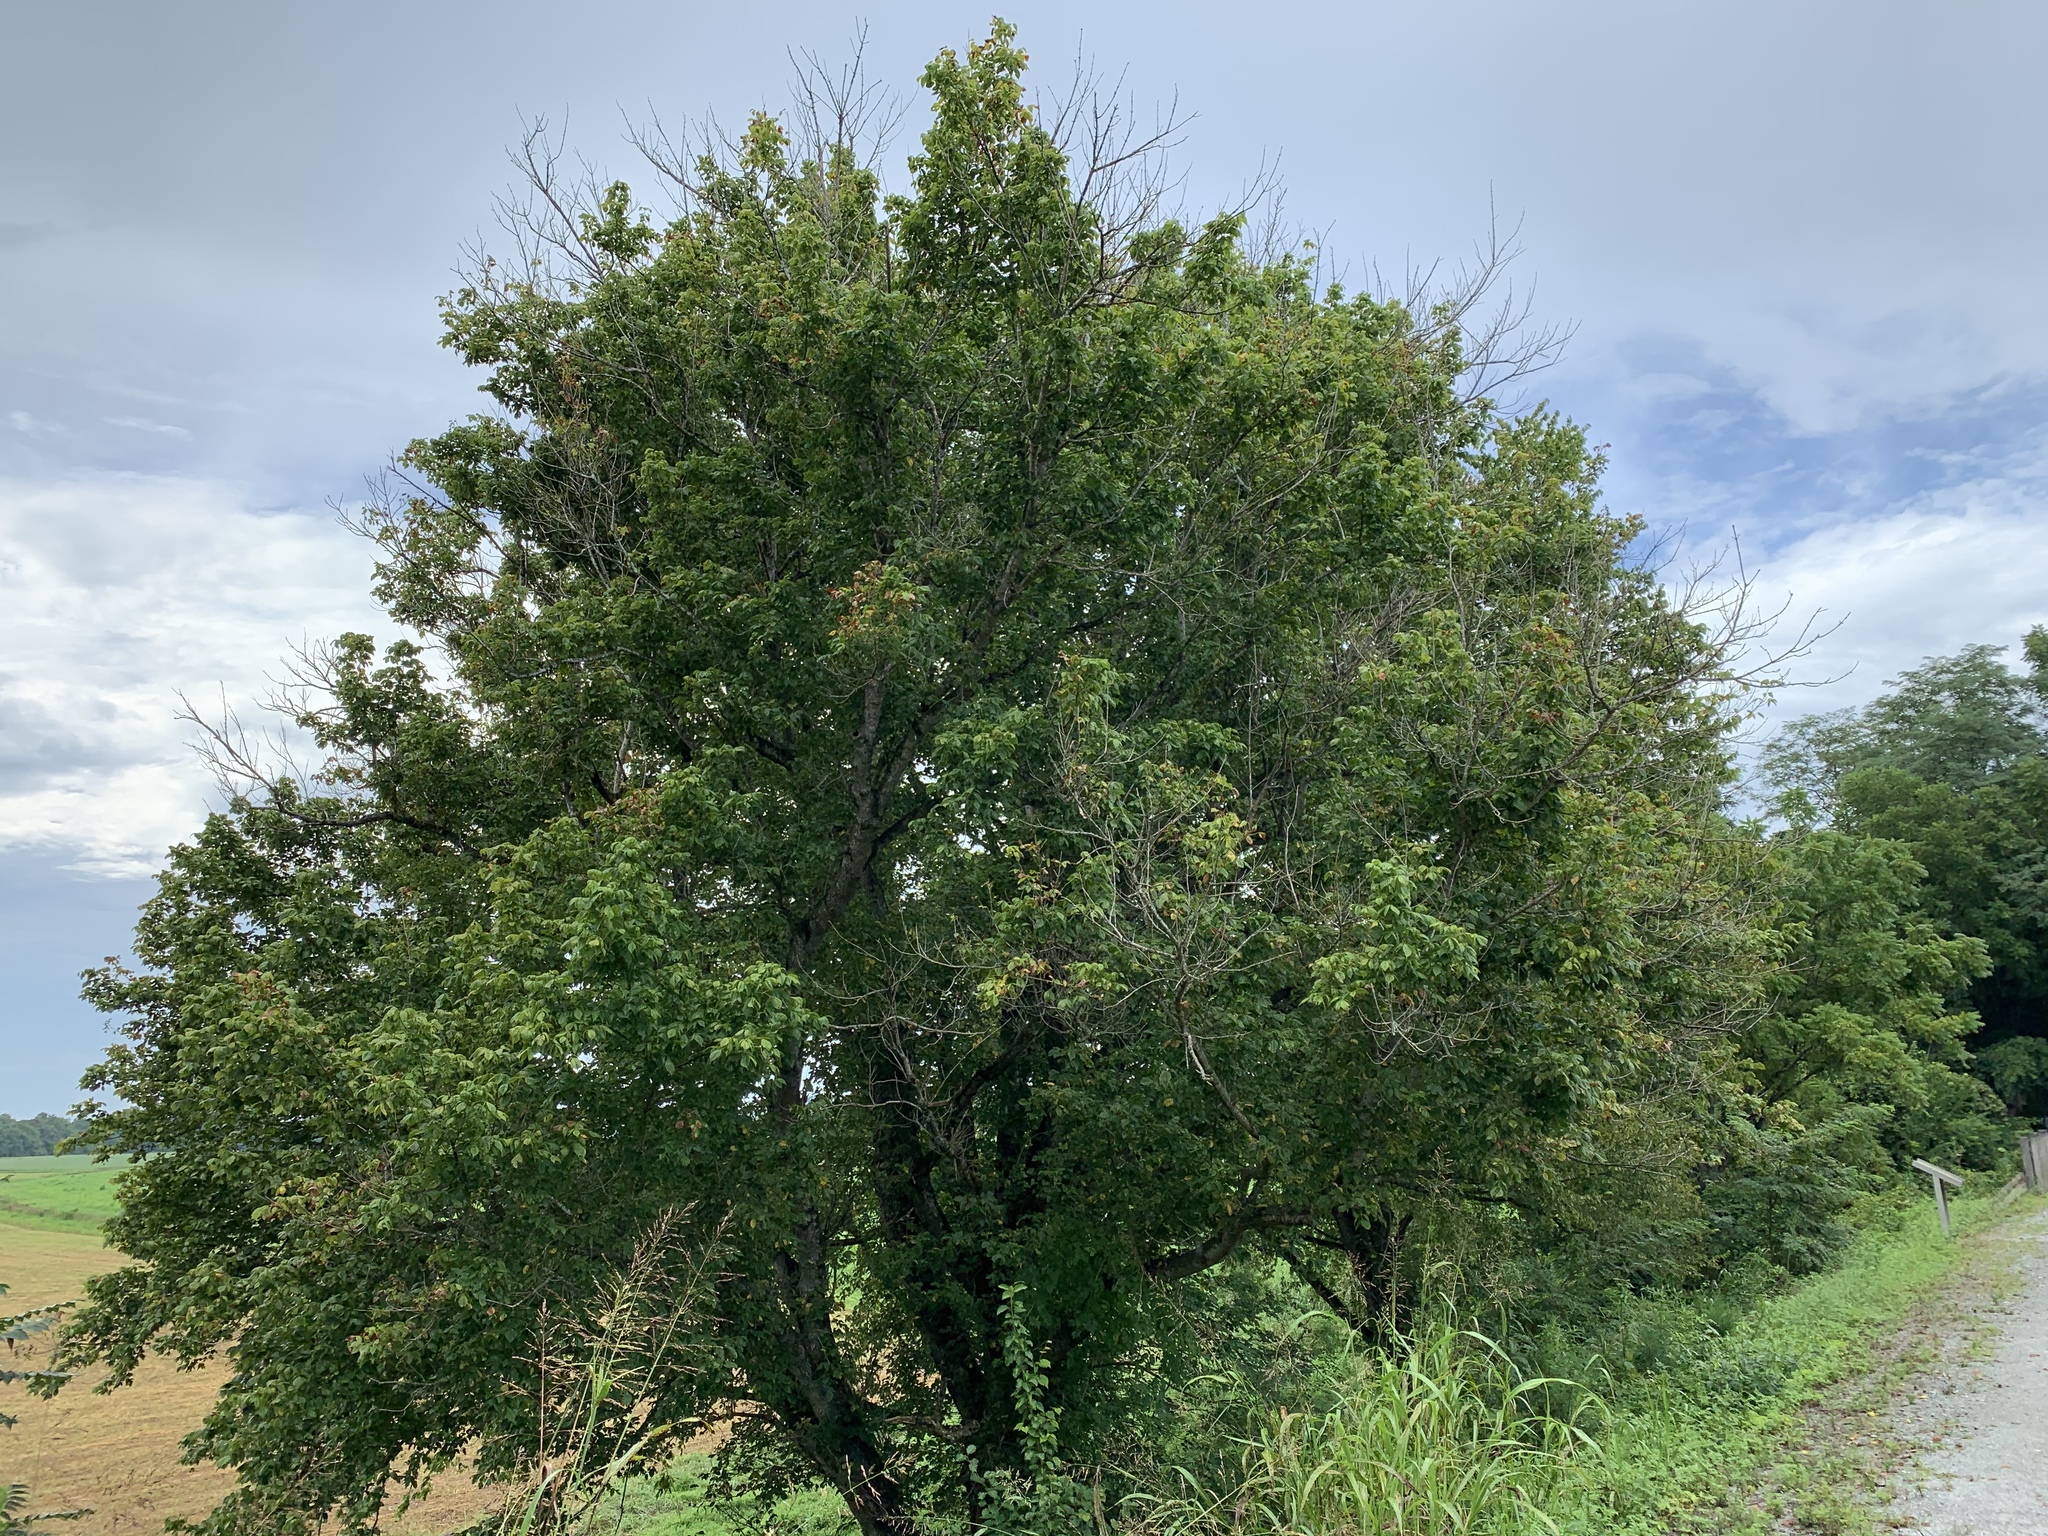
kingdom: Plantae
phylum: Tracheophyta
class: Magnoliopsida
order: Sapindales
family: Sapindaceae
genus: Acer
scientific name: Acer negundo
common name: Ashleaf maple
